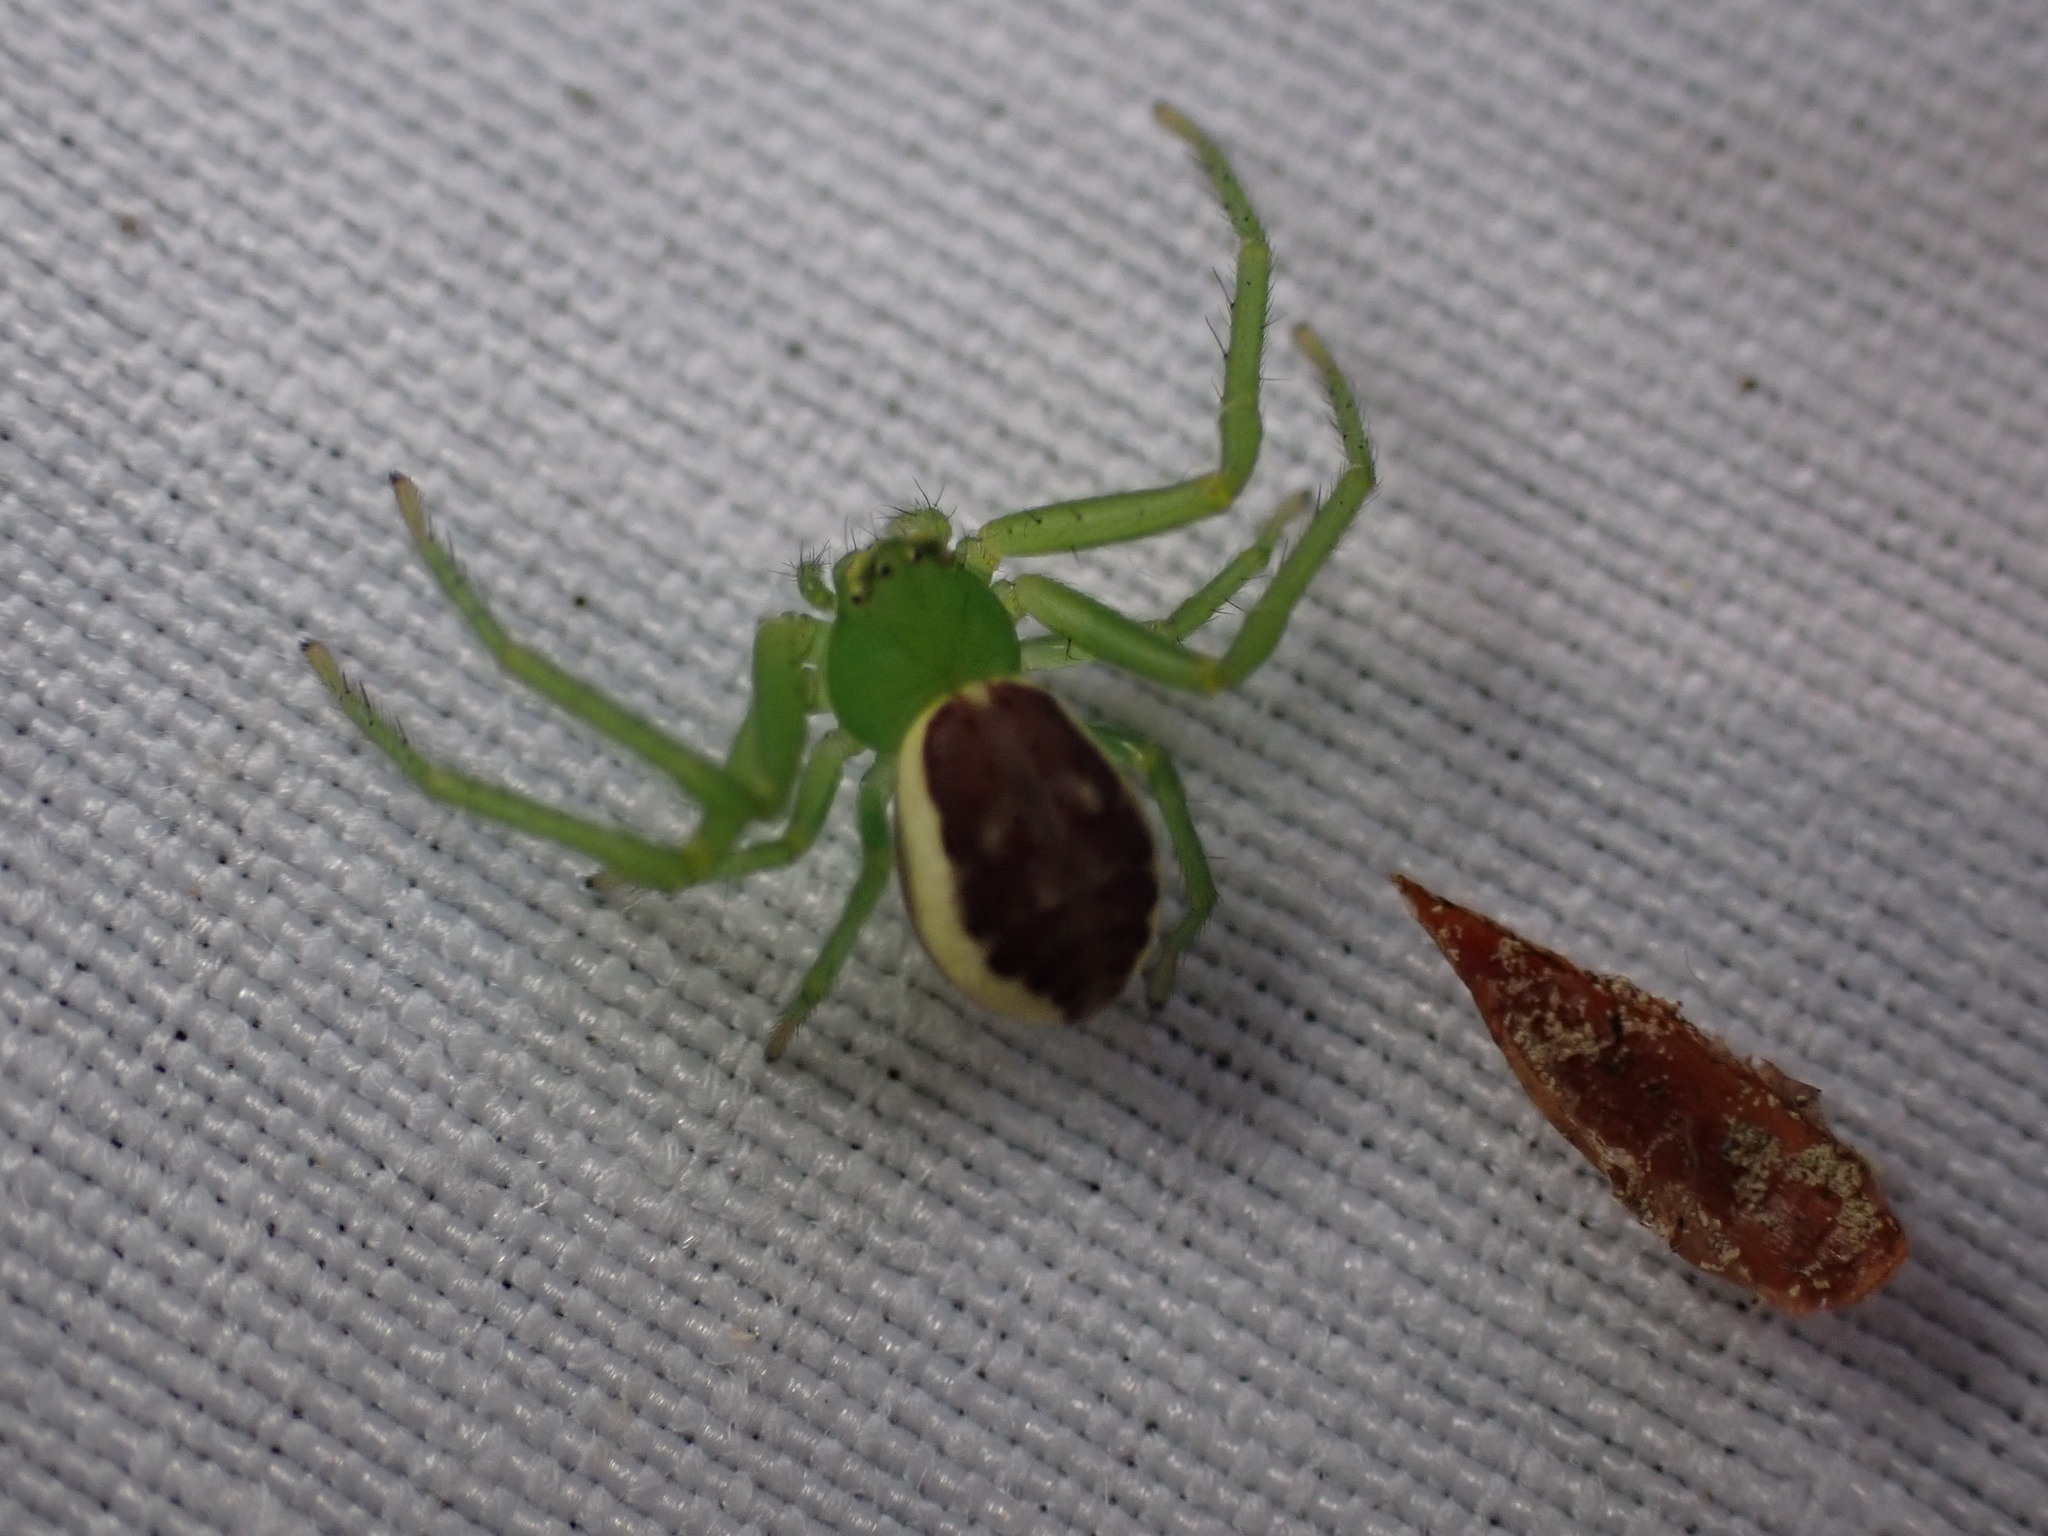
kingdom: Animalia
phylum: Arthropoda
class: Arachnida
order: Araneae
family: Thomisidae
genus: Diaea
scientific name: Diaea dorsata
